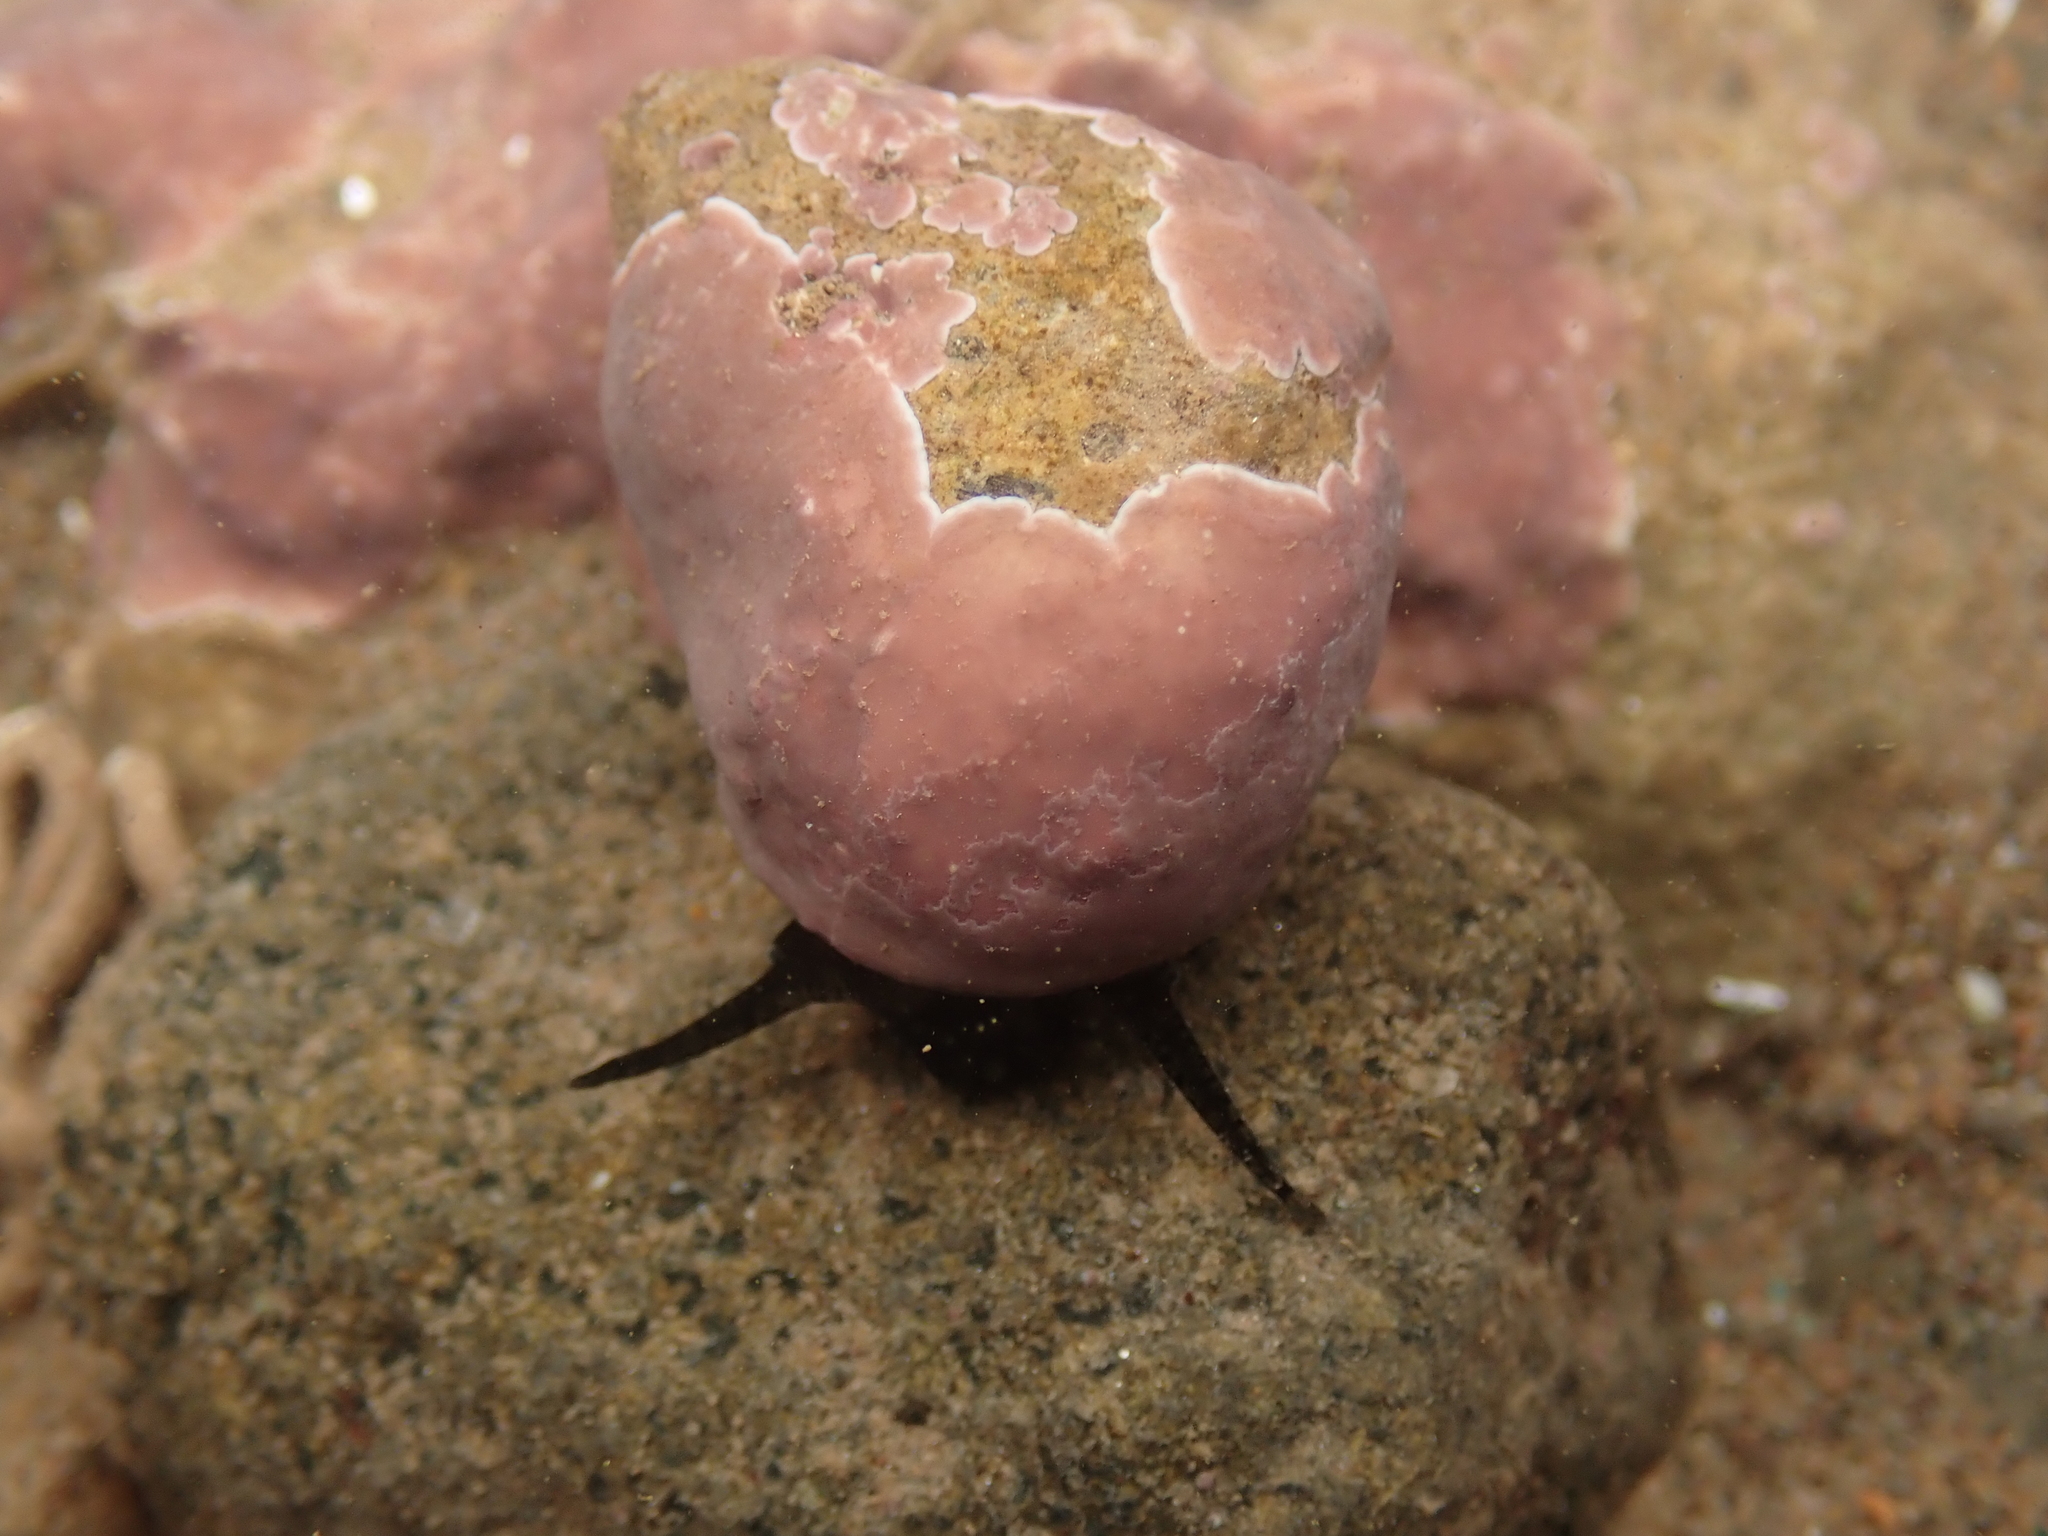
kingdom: Animalia
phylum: Mollusca
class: Gastropoda
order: Littorinimorpha
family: Littorinidae
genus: Littorina
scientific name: Littorina littorea
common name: Common periwinkle
